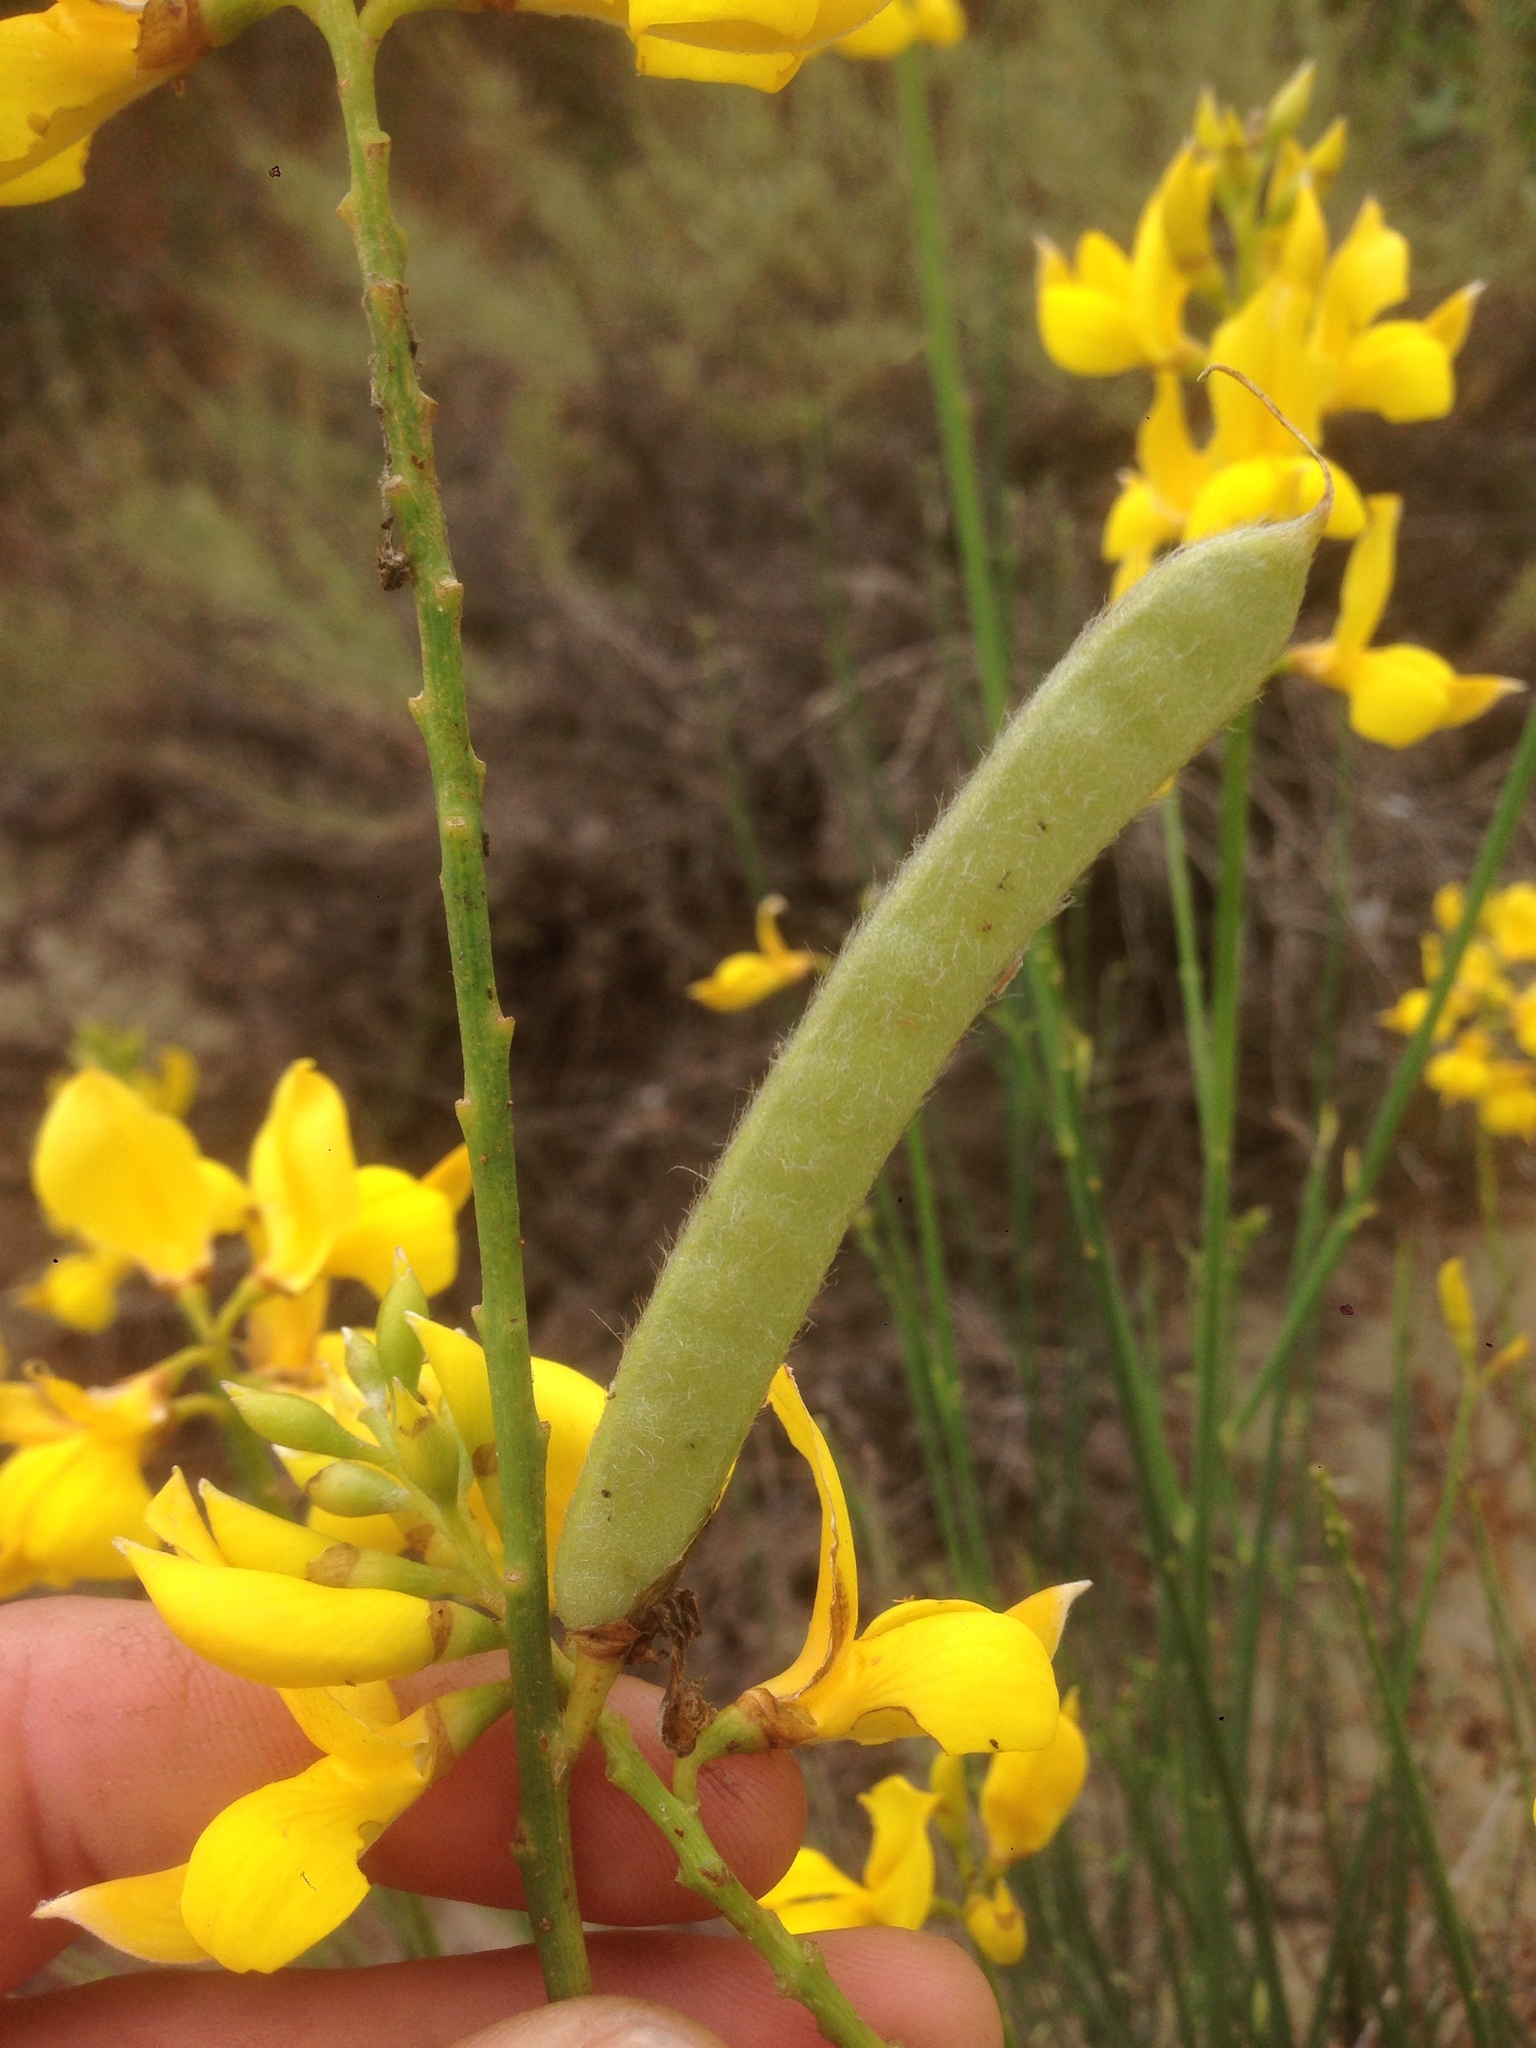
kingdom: Plantae
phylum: Tracheophyta
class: Magnoliopsida
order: Fabales
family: Fabaceae
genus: Spartium
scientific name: Spartium junceum
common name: Spanish broom
